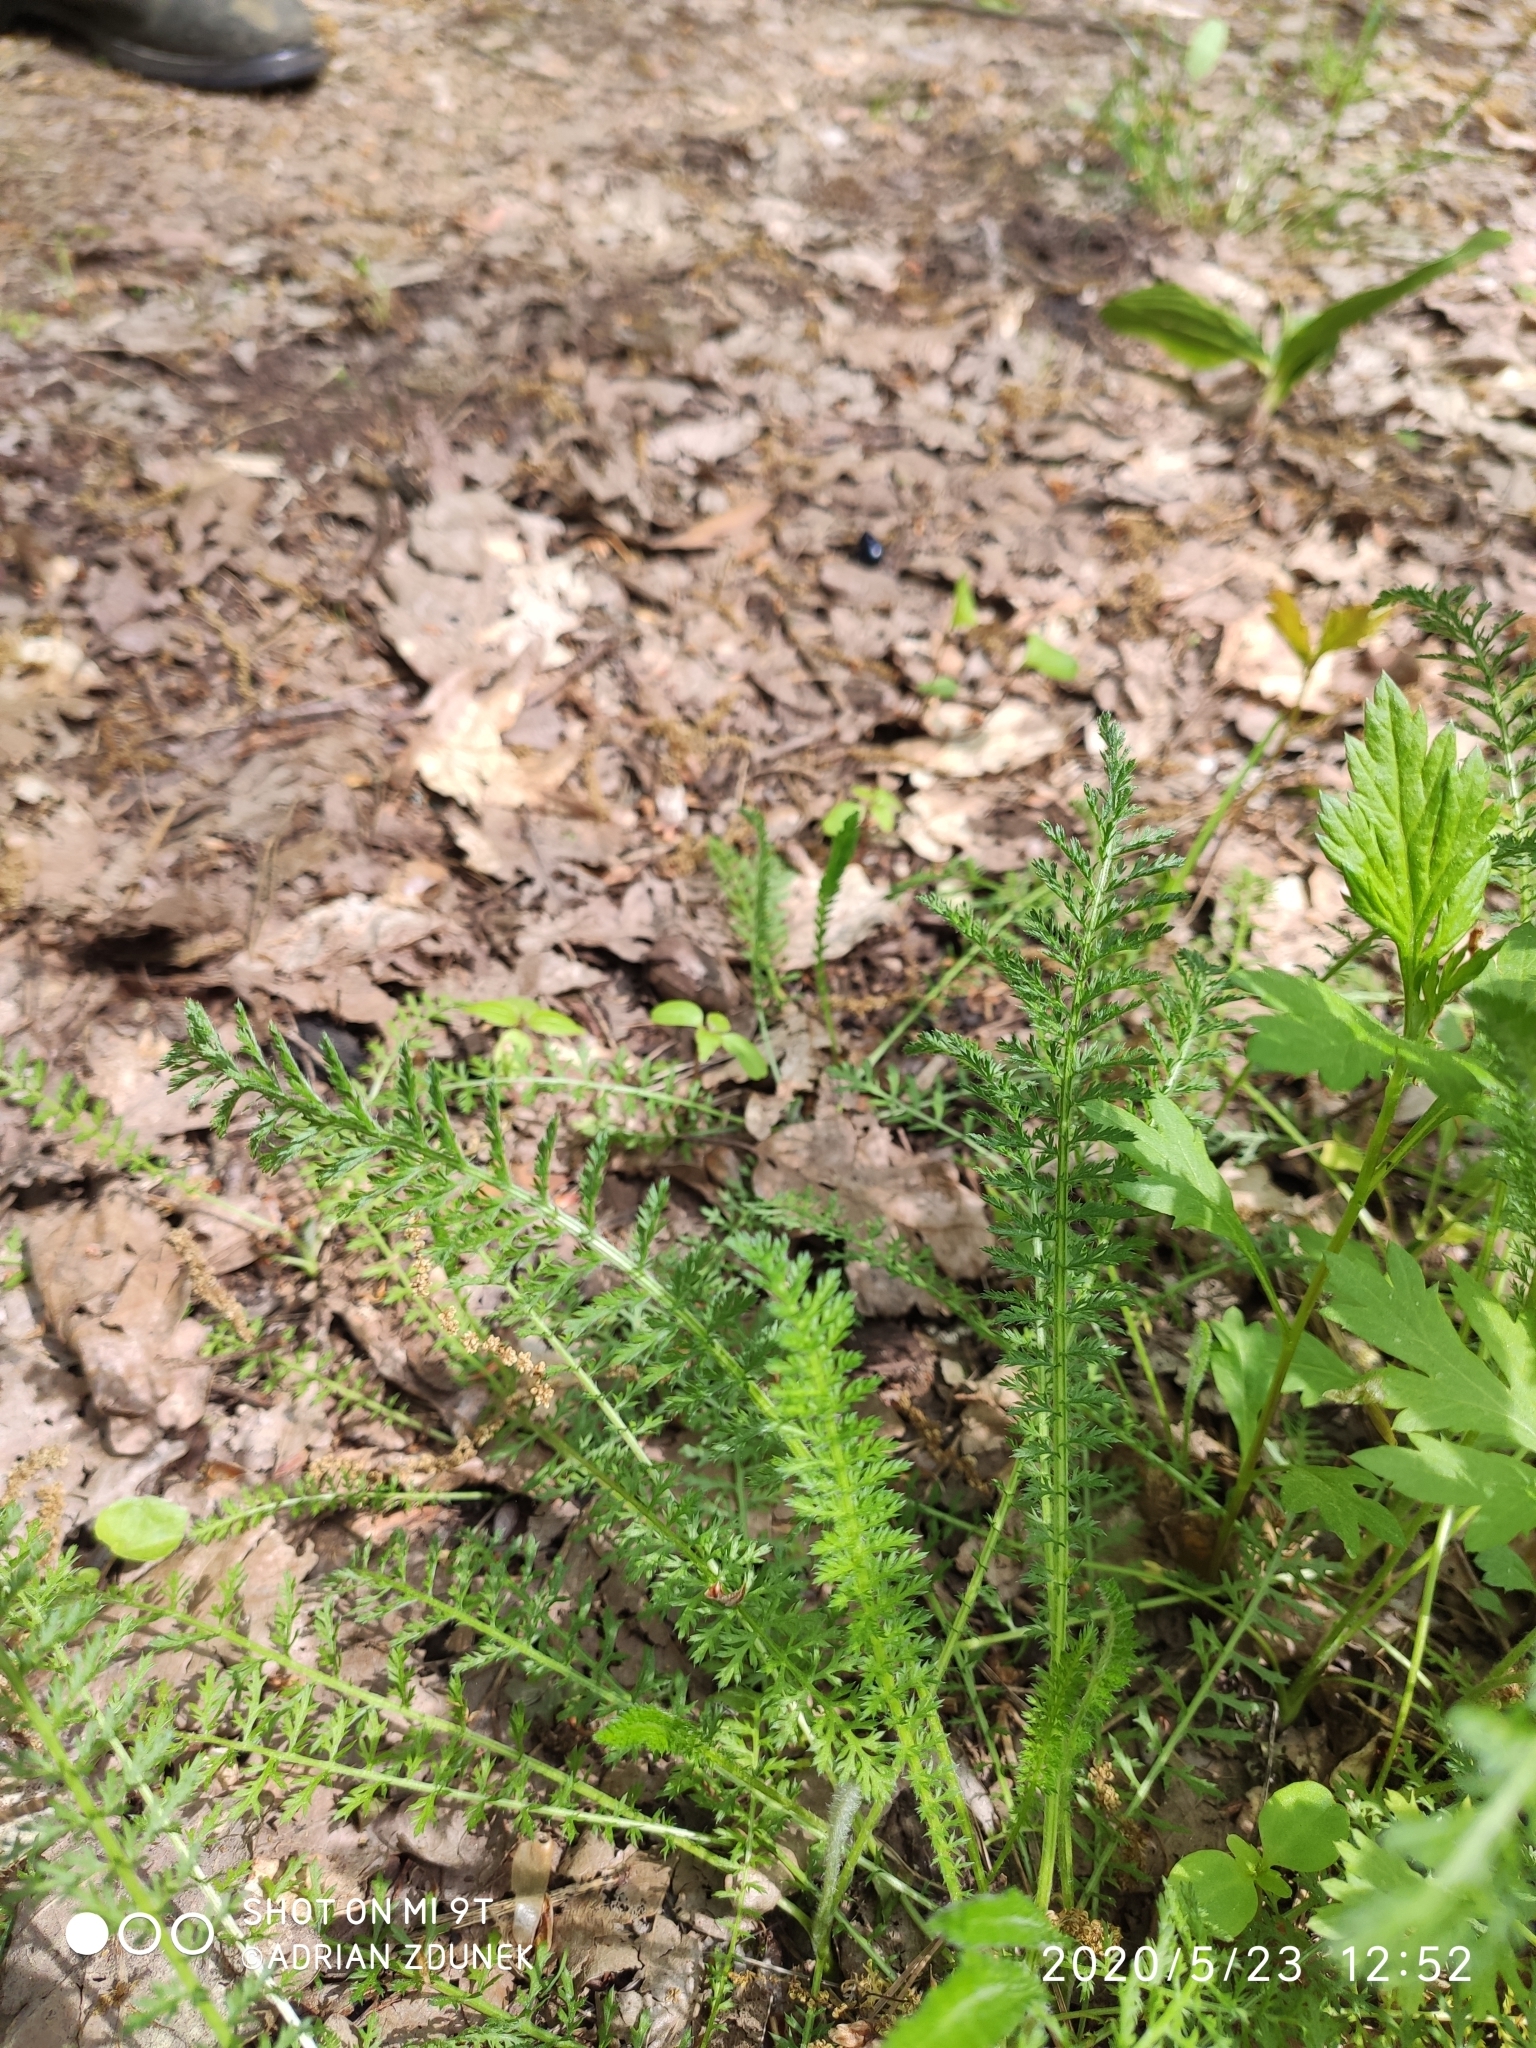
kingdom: Plantae
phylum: Tracheophyta
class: Magnoliopsida
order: Asterales
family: Asteraceae
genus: Achillea
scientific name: Achillea millefolium
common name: Yarrow
